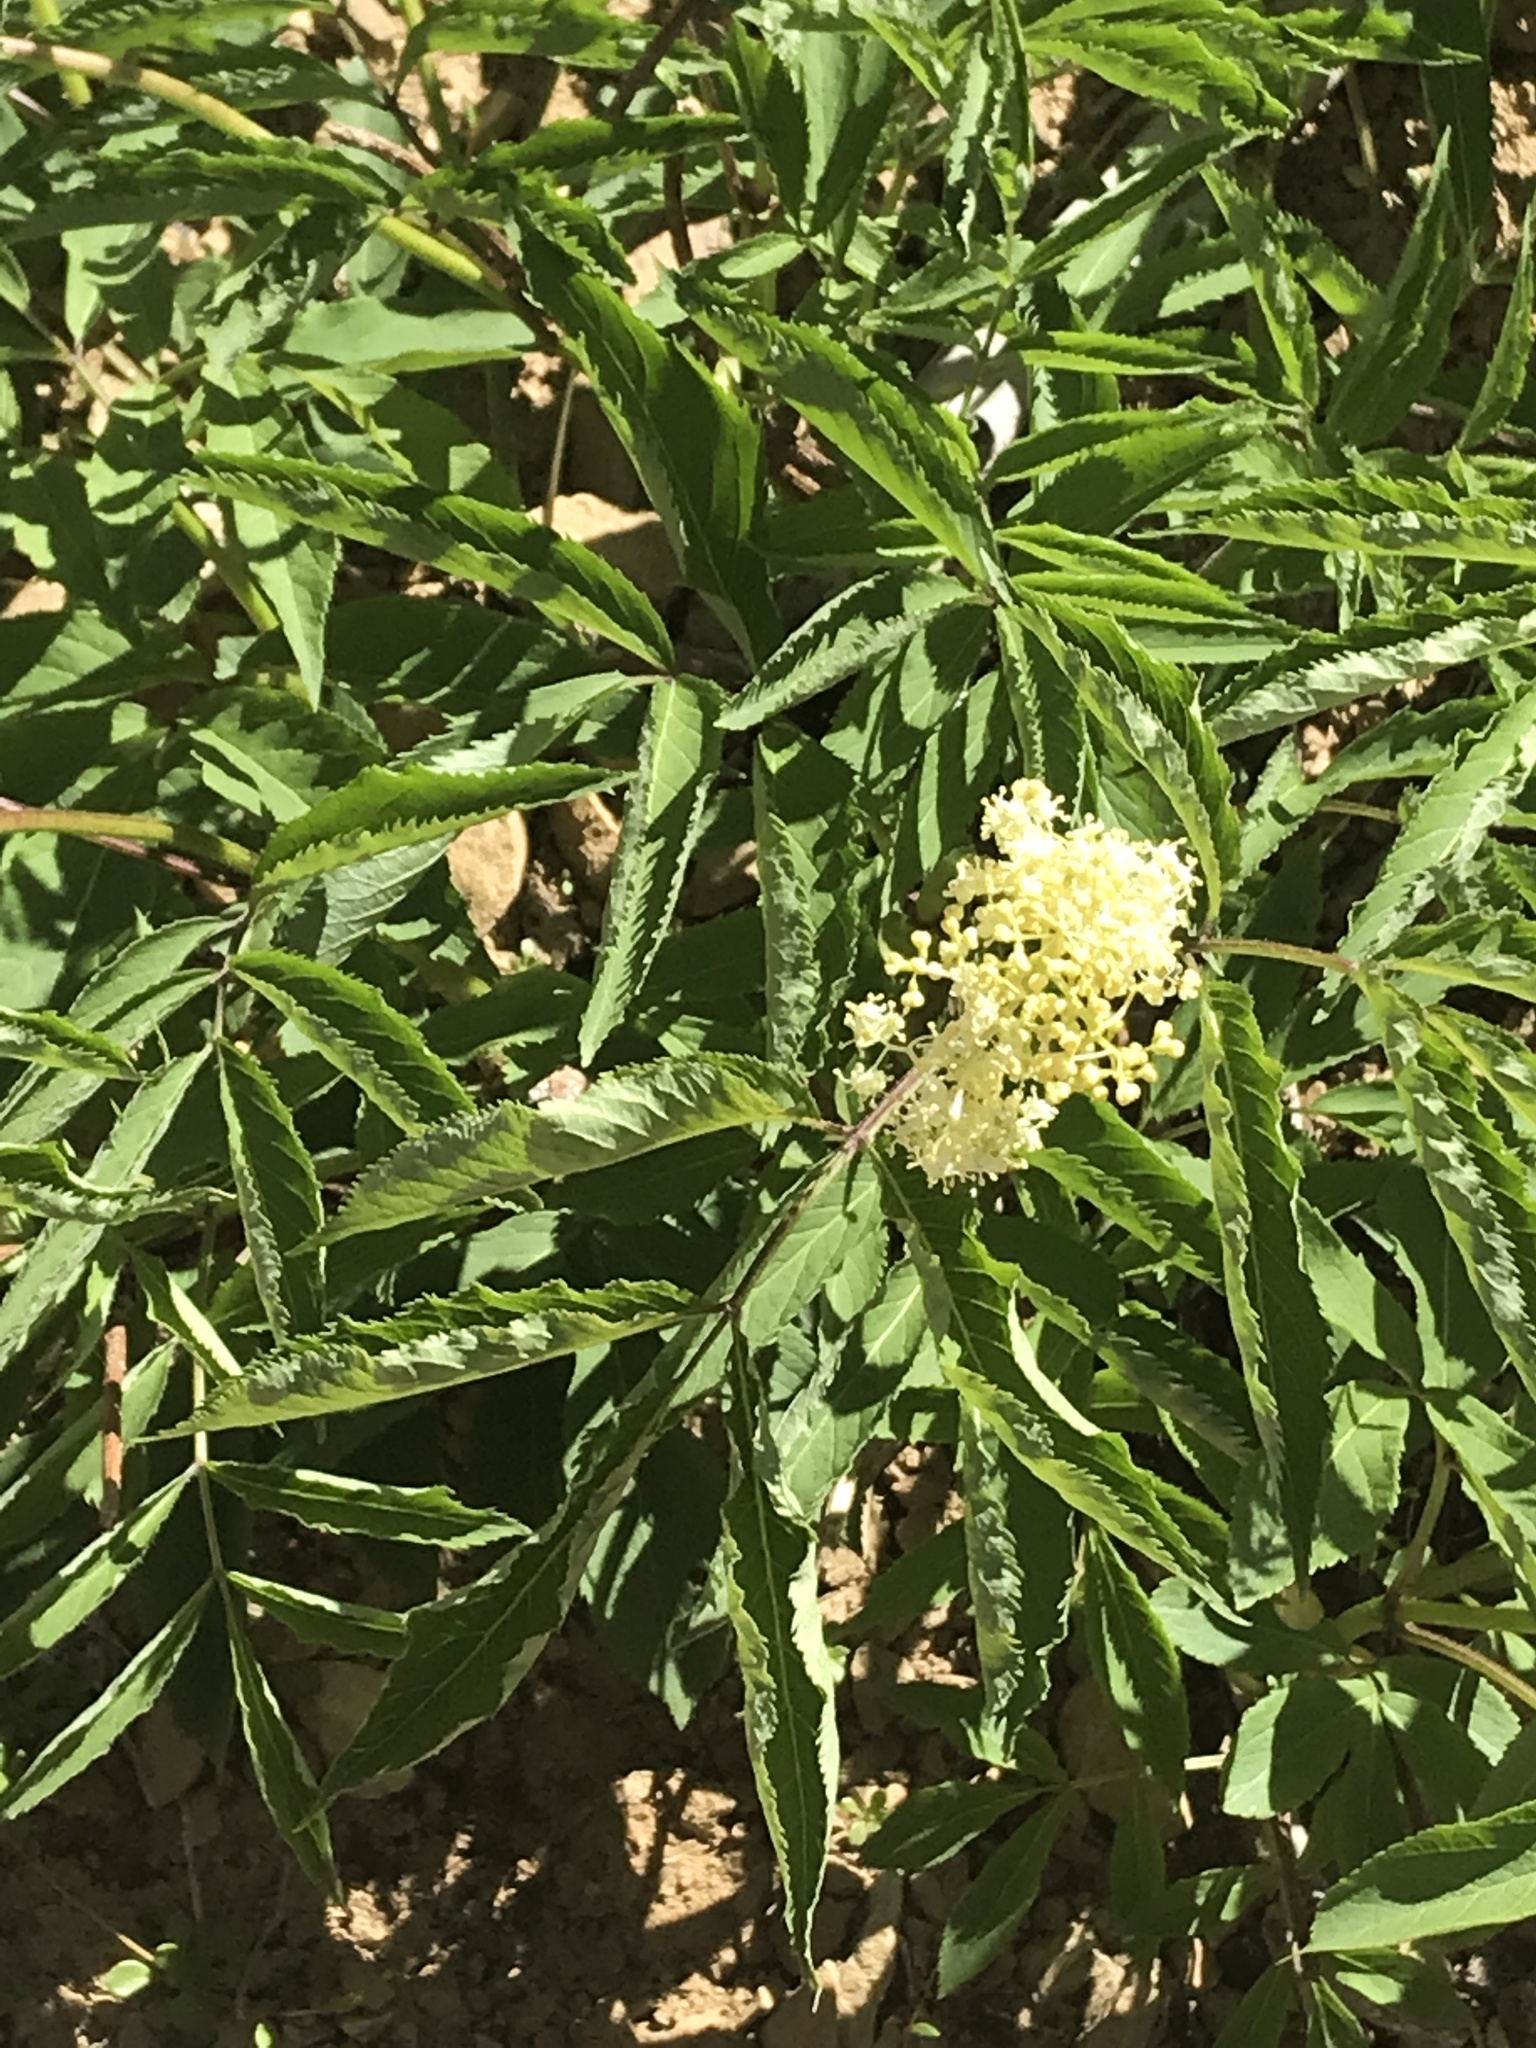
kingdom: Plantae
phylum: Tracheophyta
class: Magnoliopsida
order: Dipsacales
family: Viburnaceae
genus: Sambucus
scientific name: Sambucus racemosa
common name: Red-berried elder
